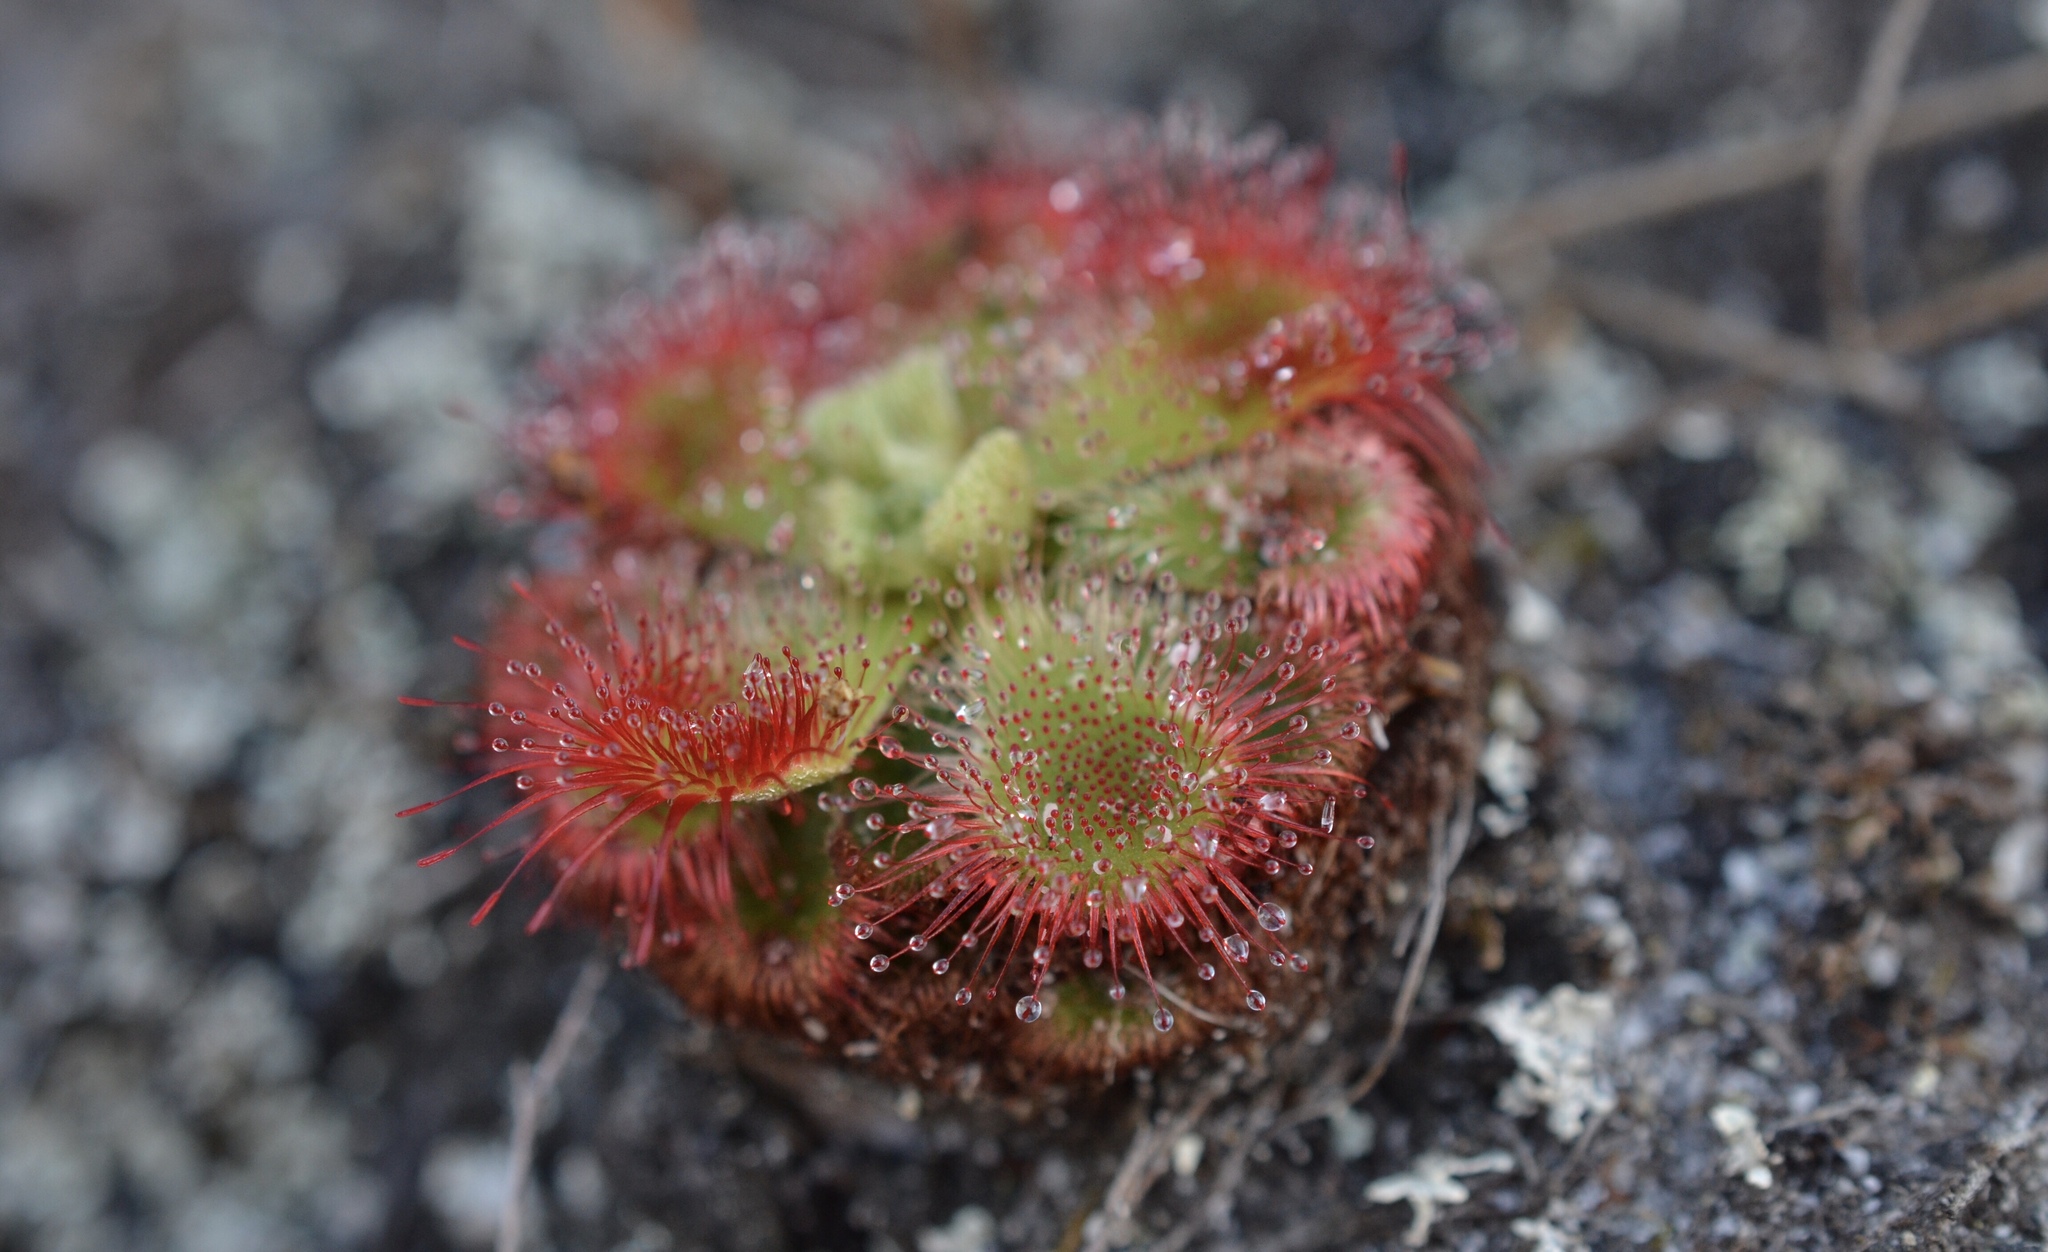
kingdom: Plantae
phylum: Tracheophyta
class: Magnoliopsida
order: Caryophyllales
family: Droseraceae
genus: Drosera
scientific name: Drosera xerophila
